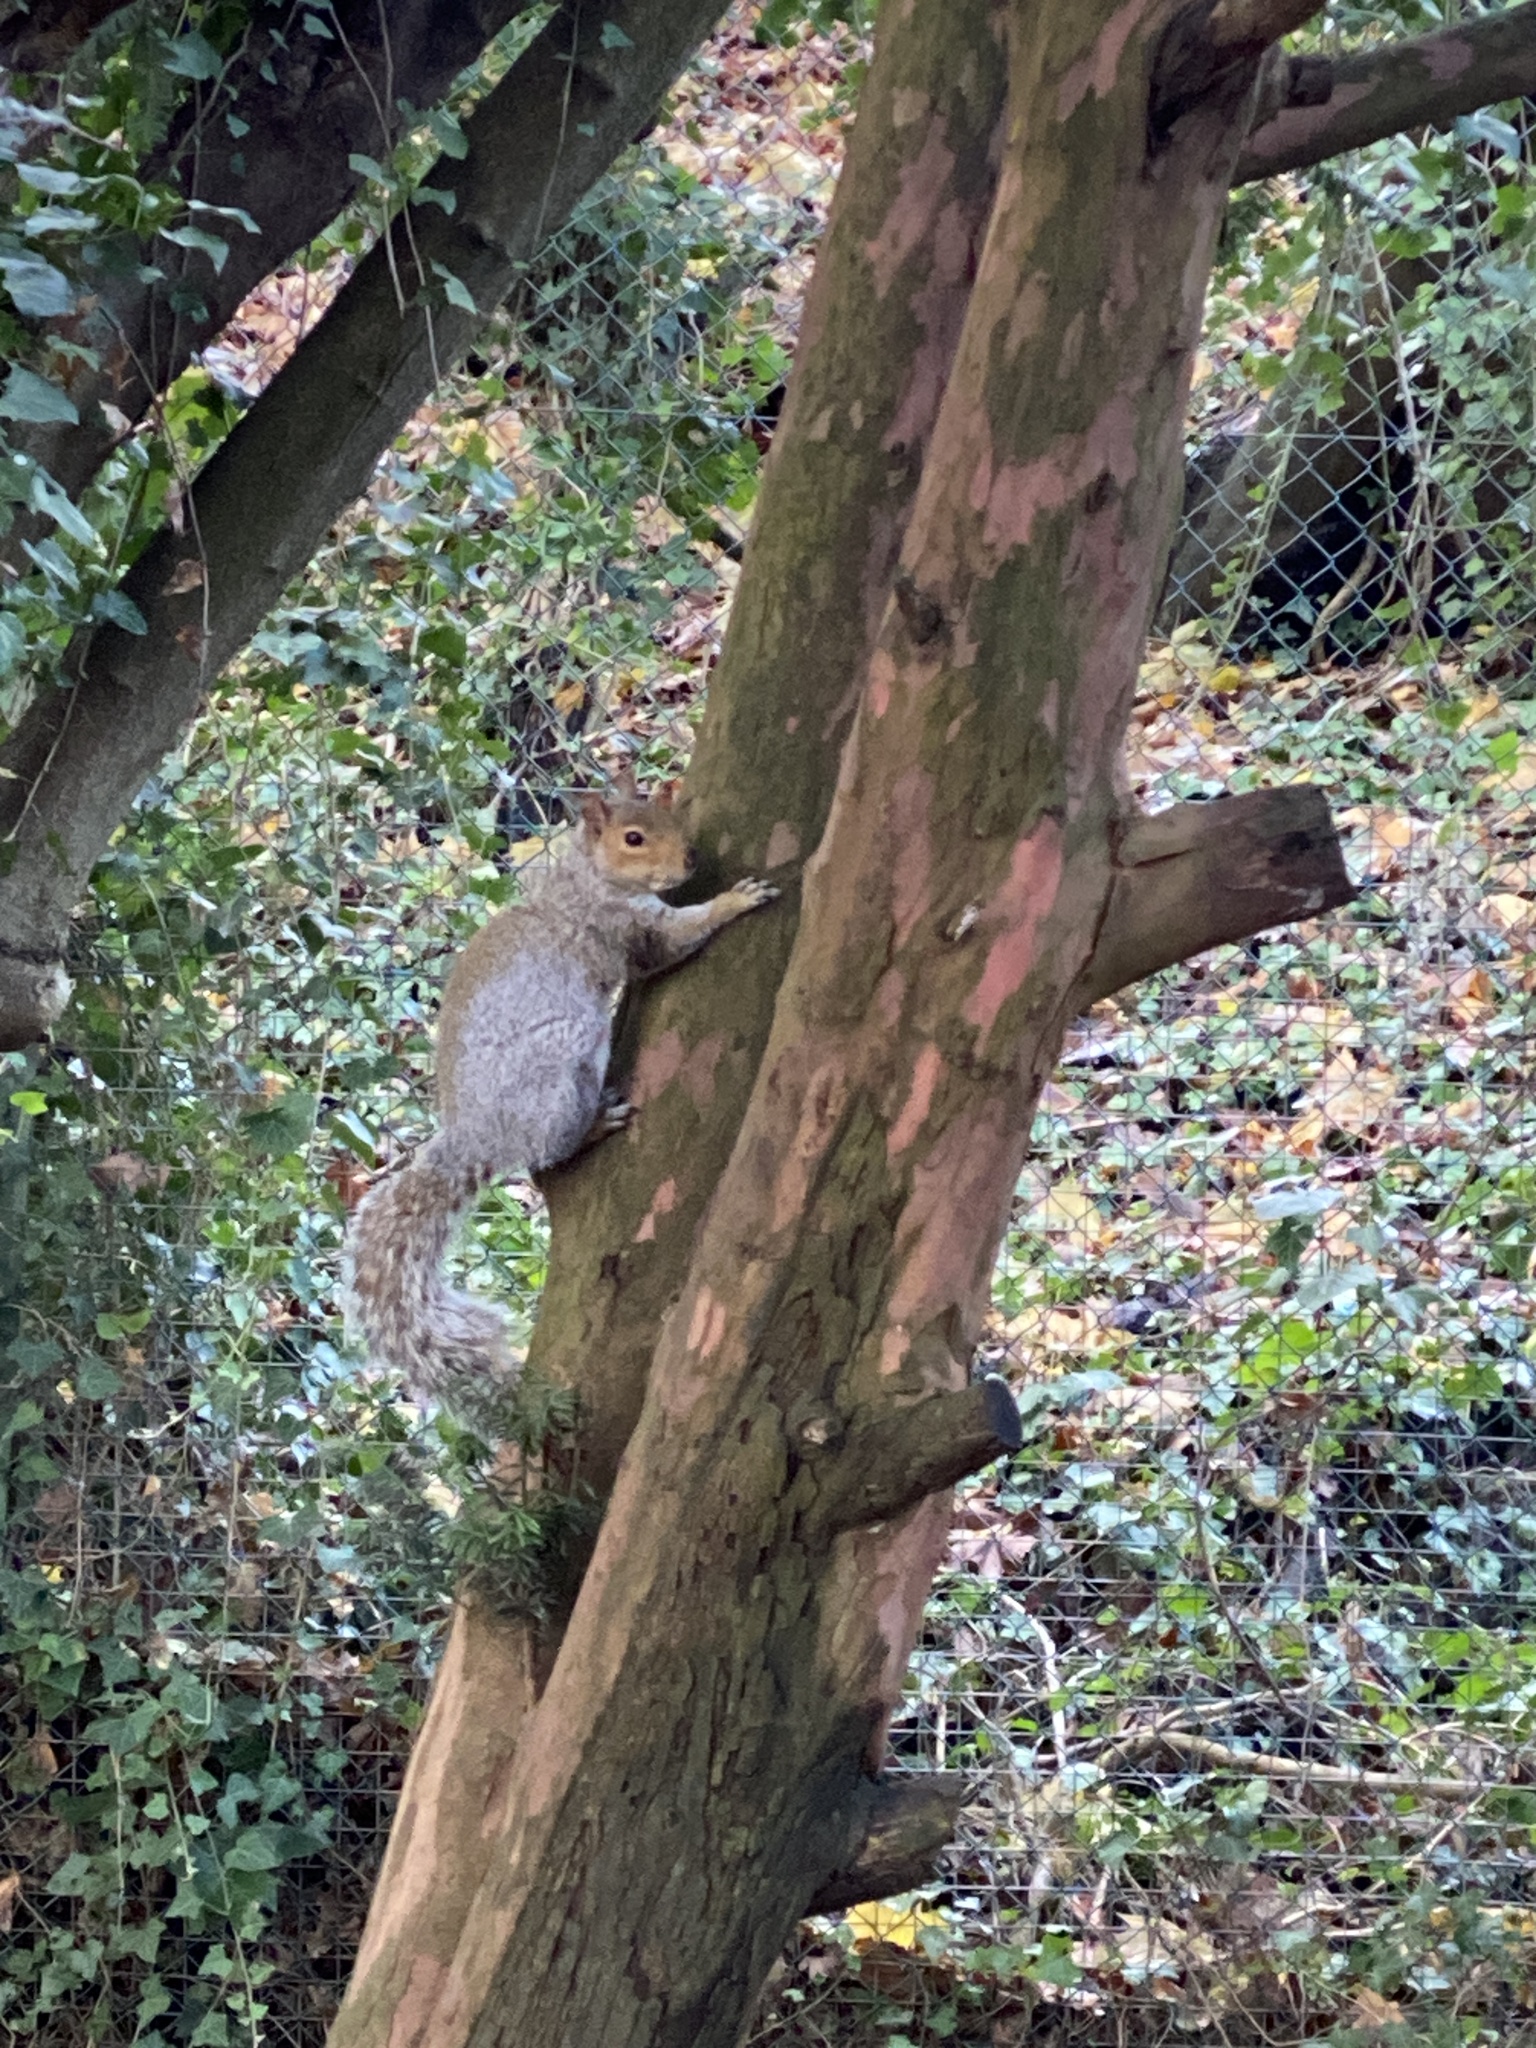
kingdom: Animalia
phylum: Chordata
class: Mammalia
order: Rodentia
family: Sciuridae
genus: Sciurus
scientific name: Sciurus carolinensis
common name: Eastern gray squirrel
